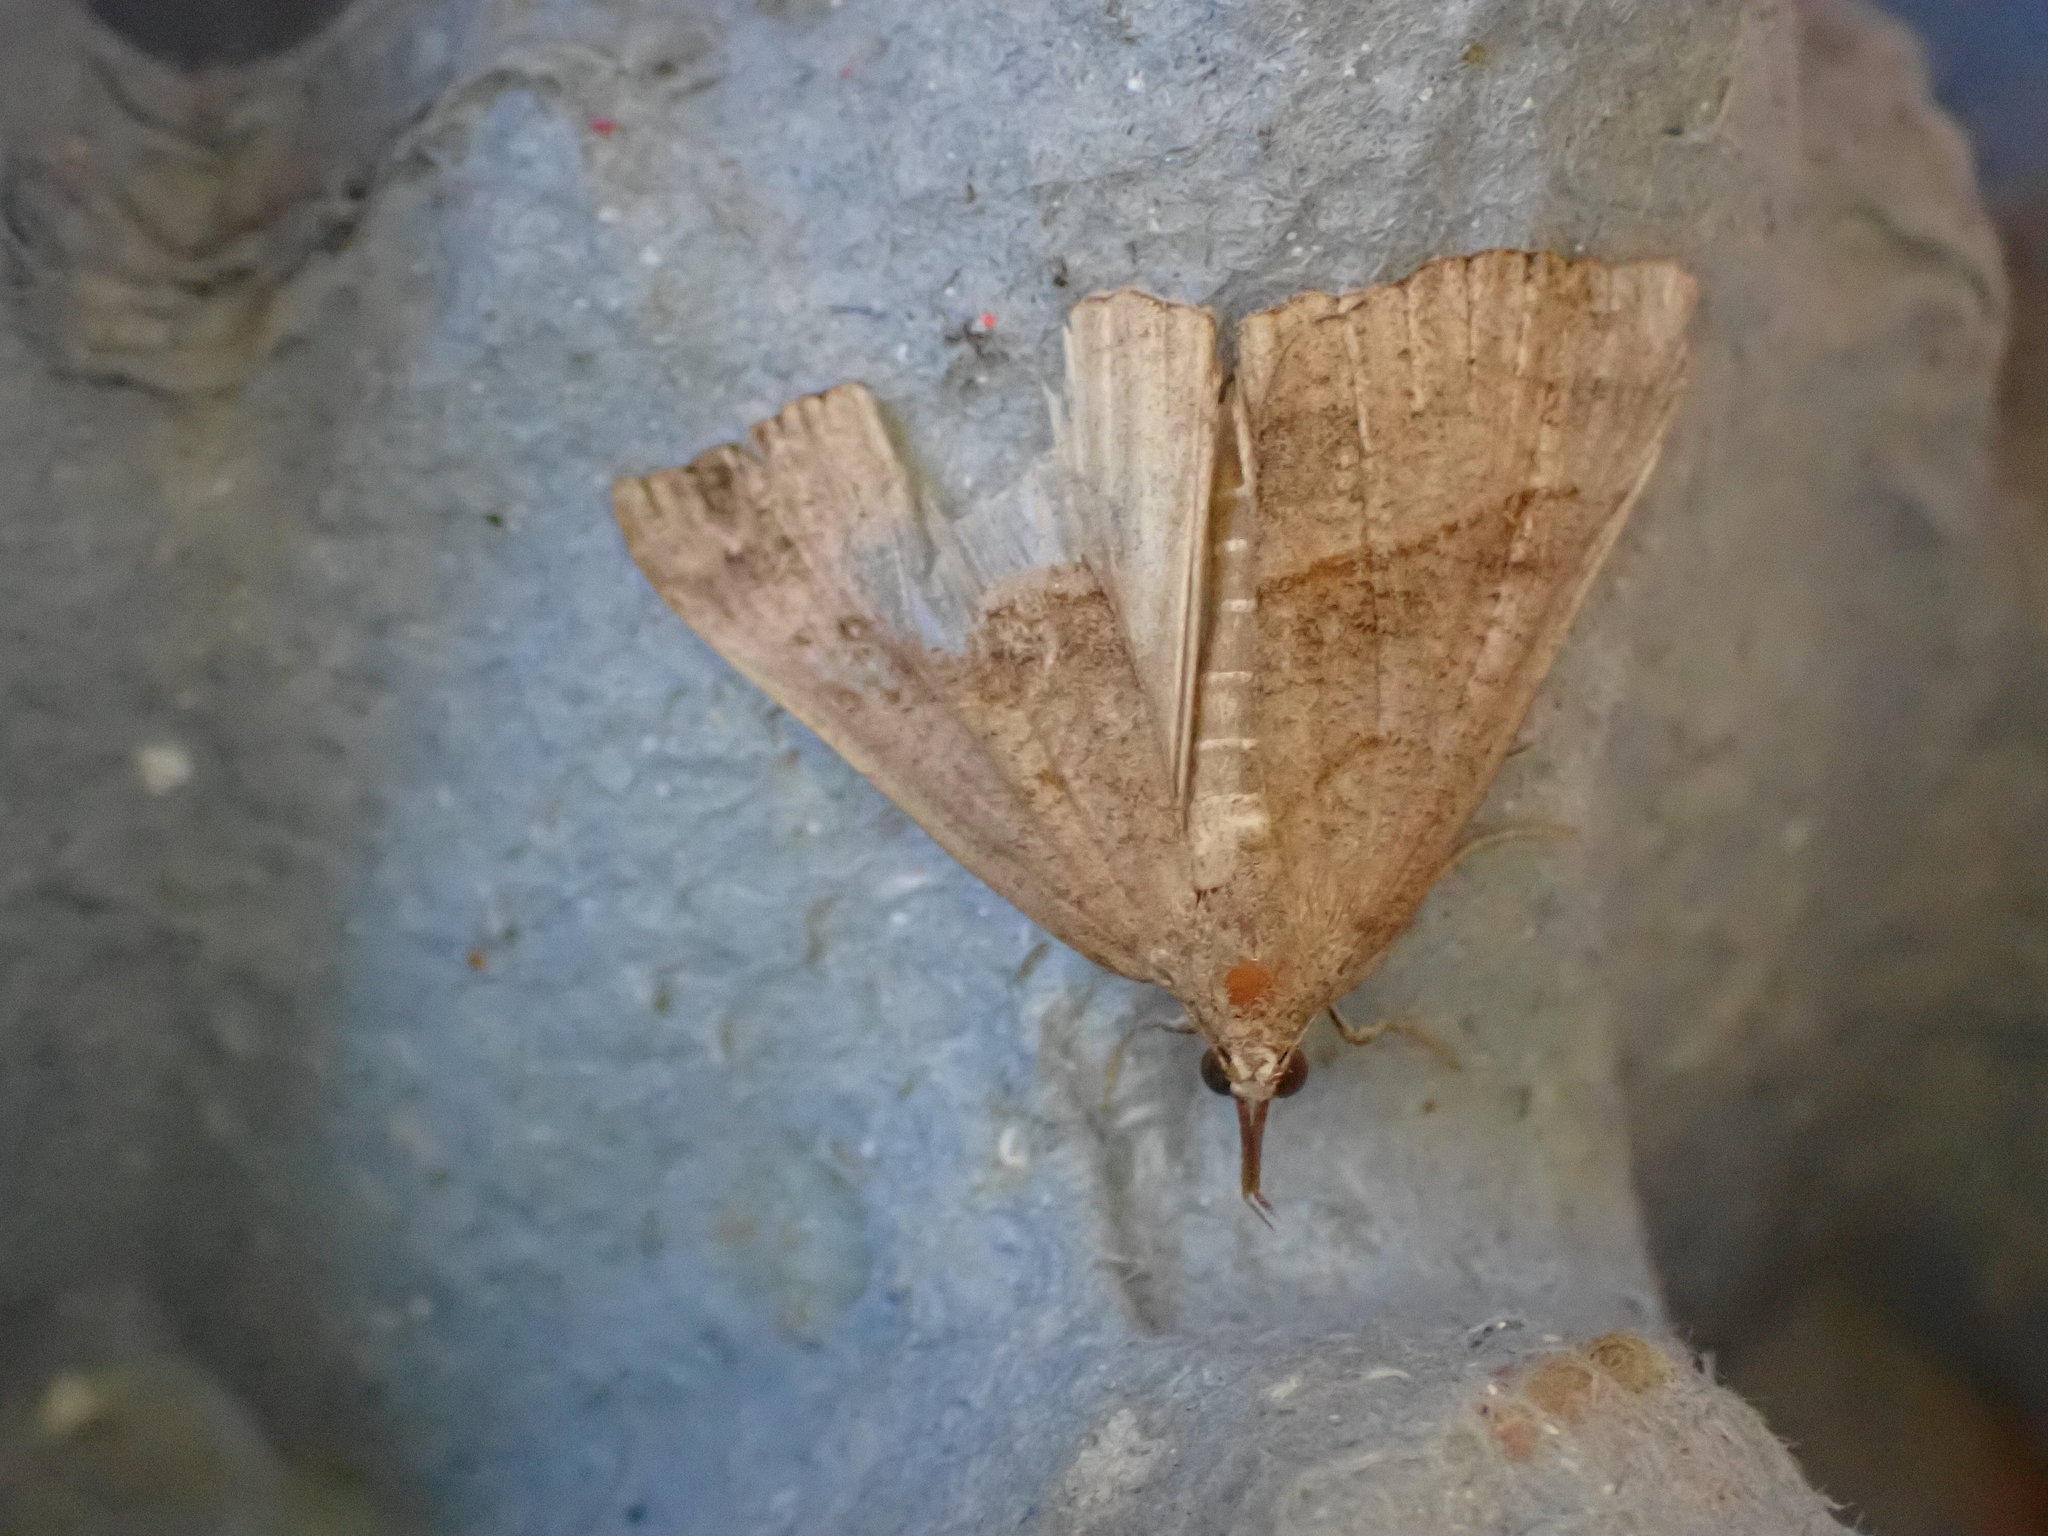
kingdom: Animalia
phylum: Arthropoda
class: Insecta
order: Lepidoptera
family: Erebidae
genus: Hypena
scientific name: Hypena proboscidalis
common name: Snout
